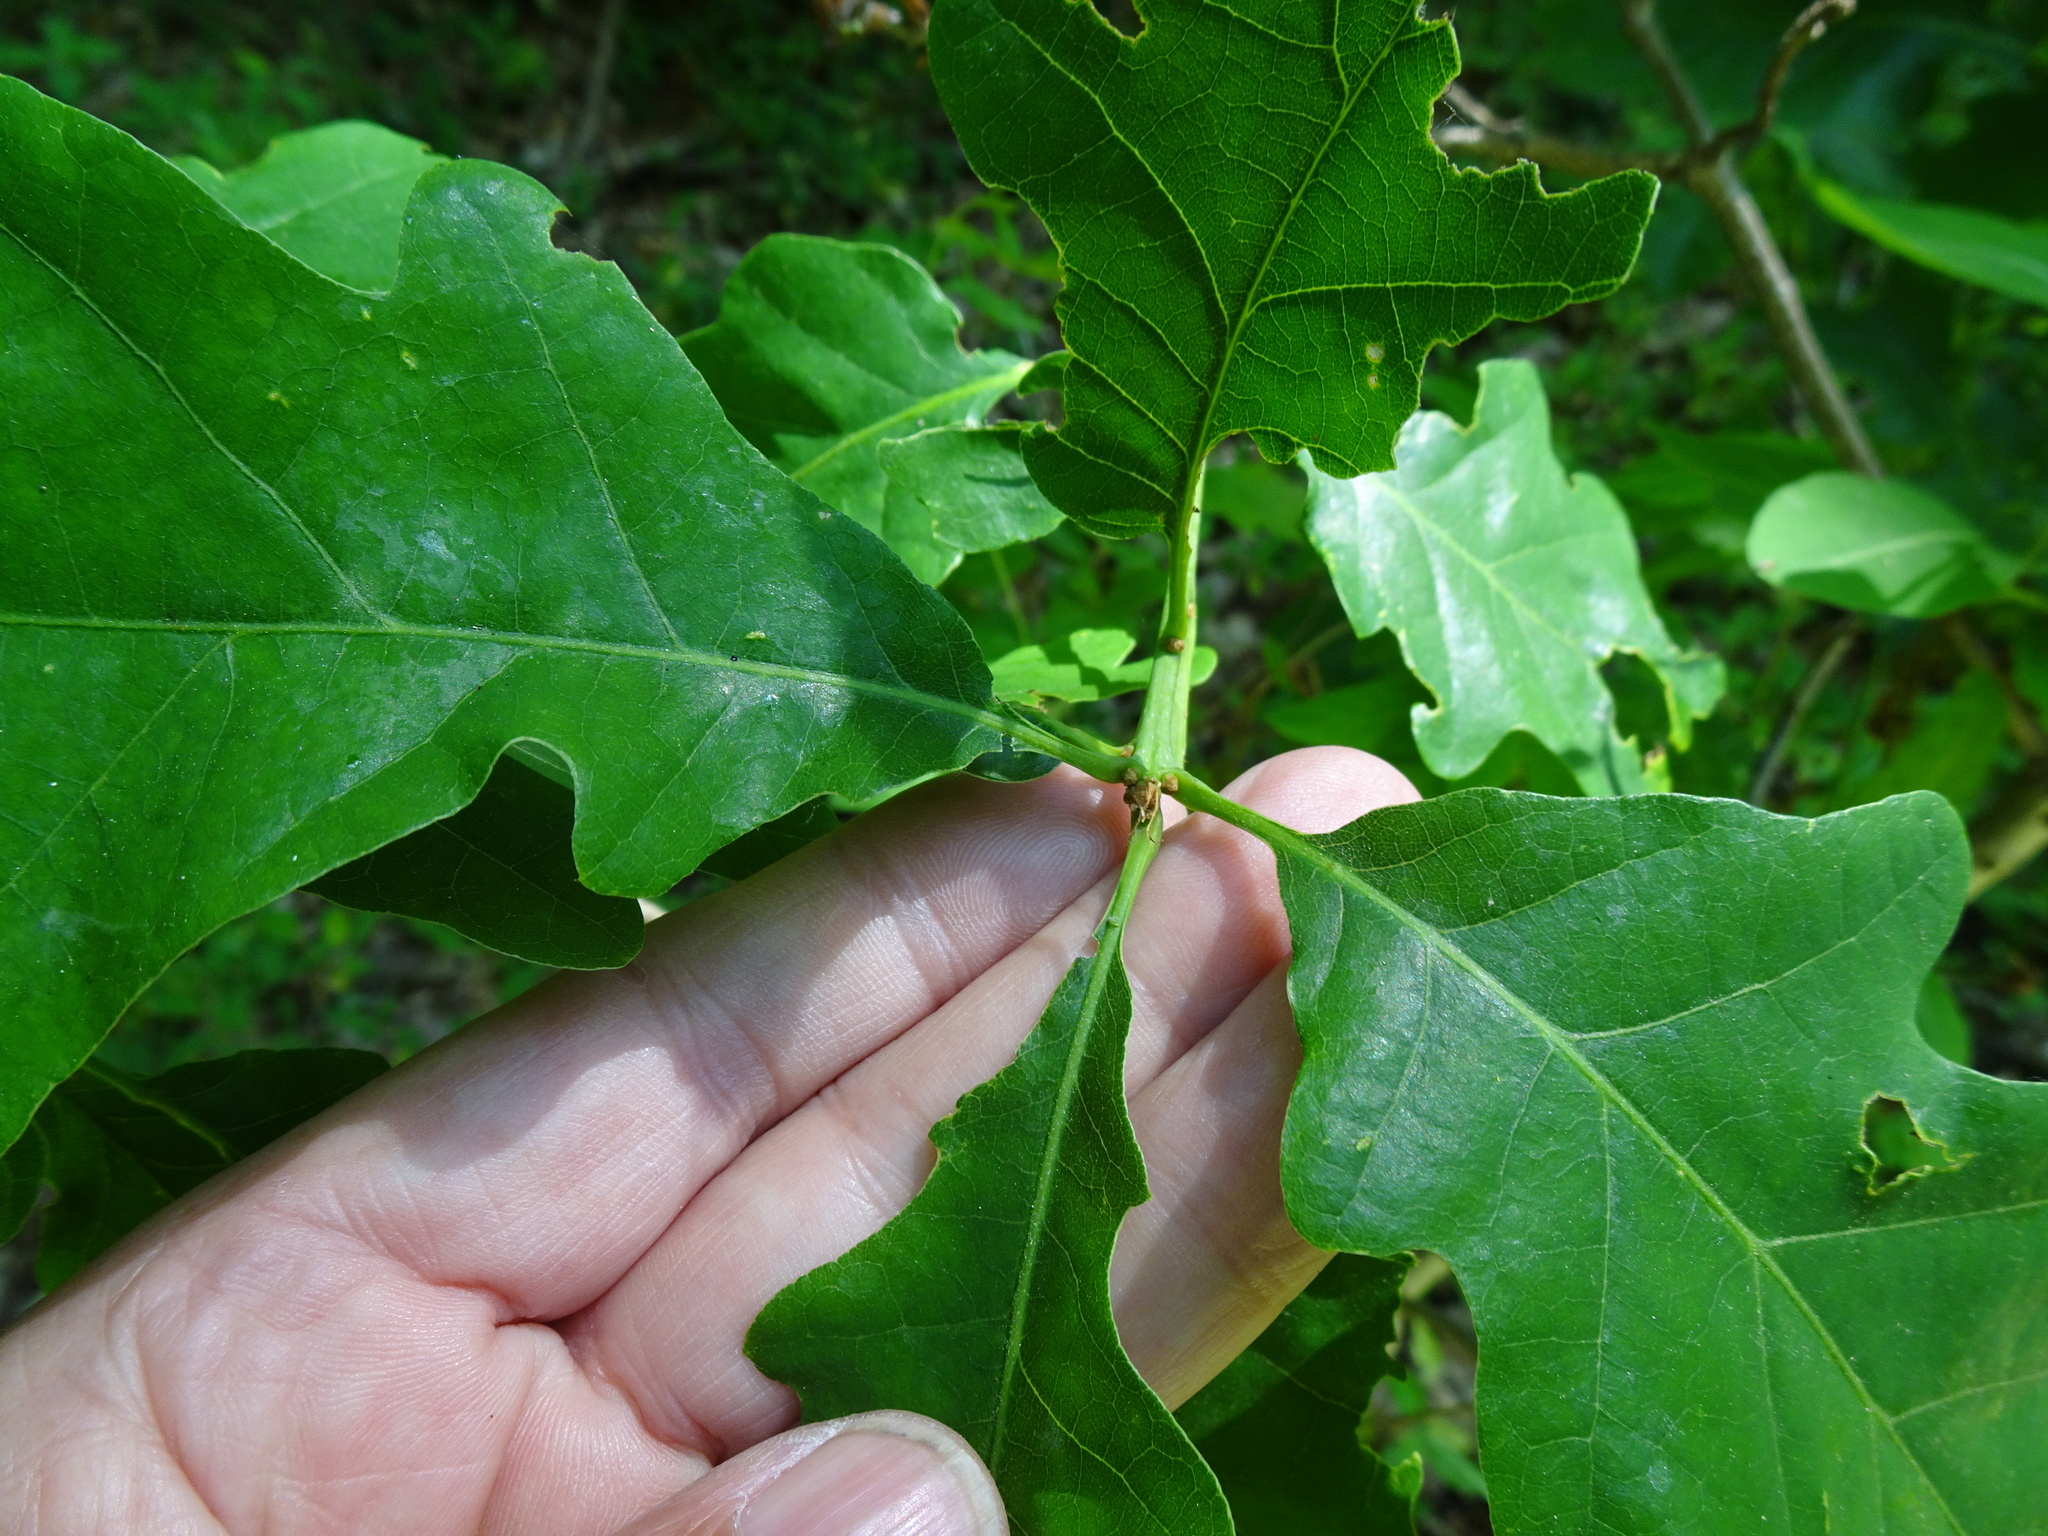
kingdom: Plantae
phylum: Tracheophyta
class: Magnoliopsida
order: Fagales
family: Fagaceae
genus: Quercus
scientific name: Quercus petraea
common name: Sessile oak
